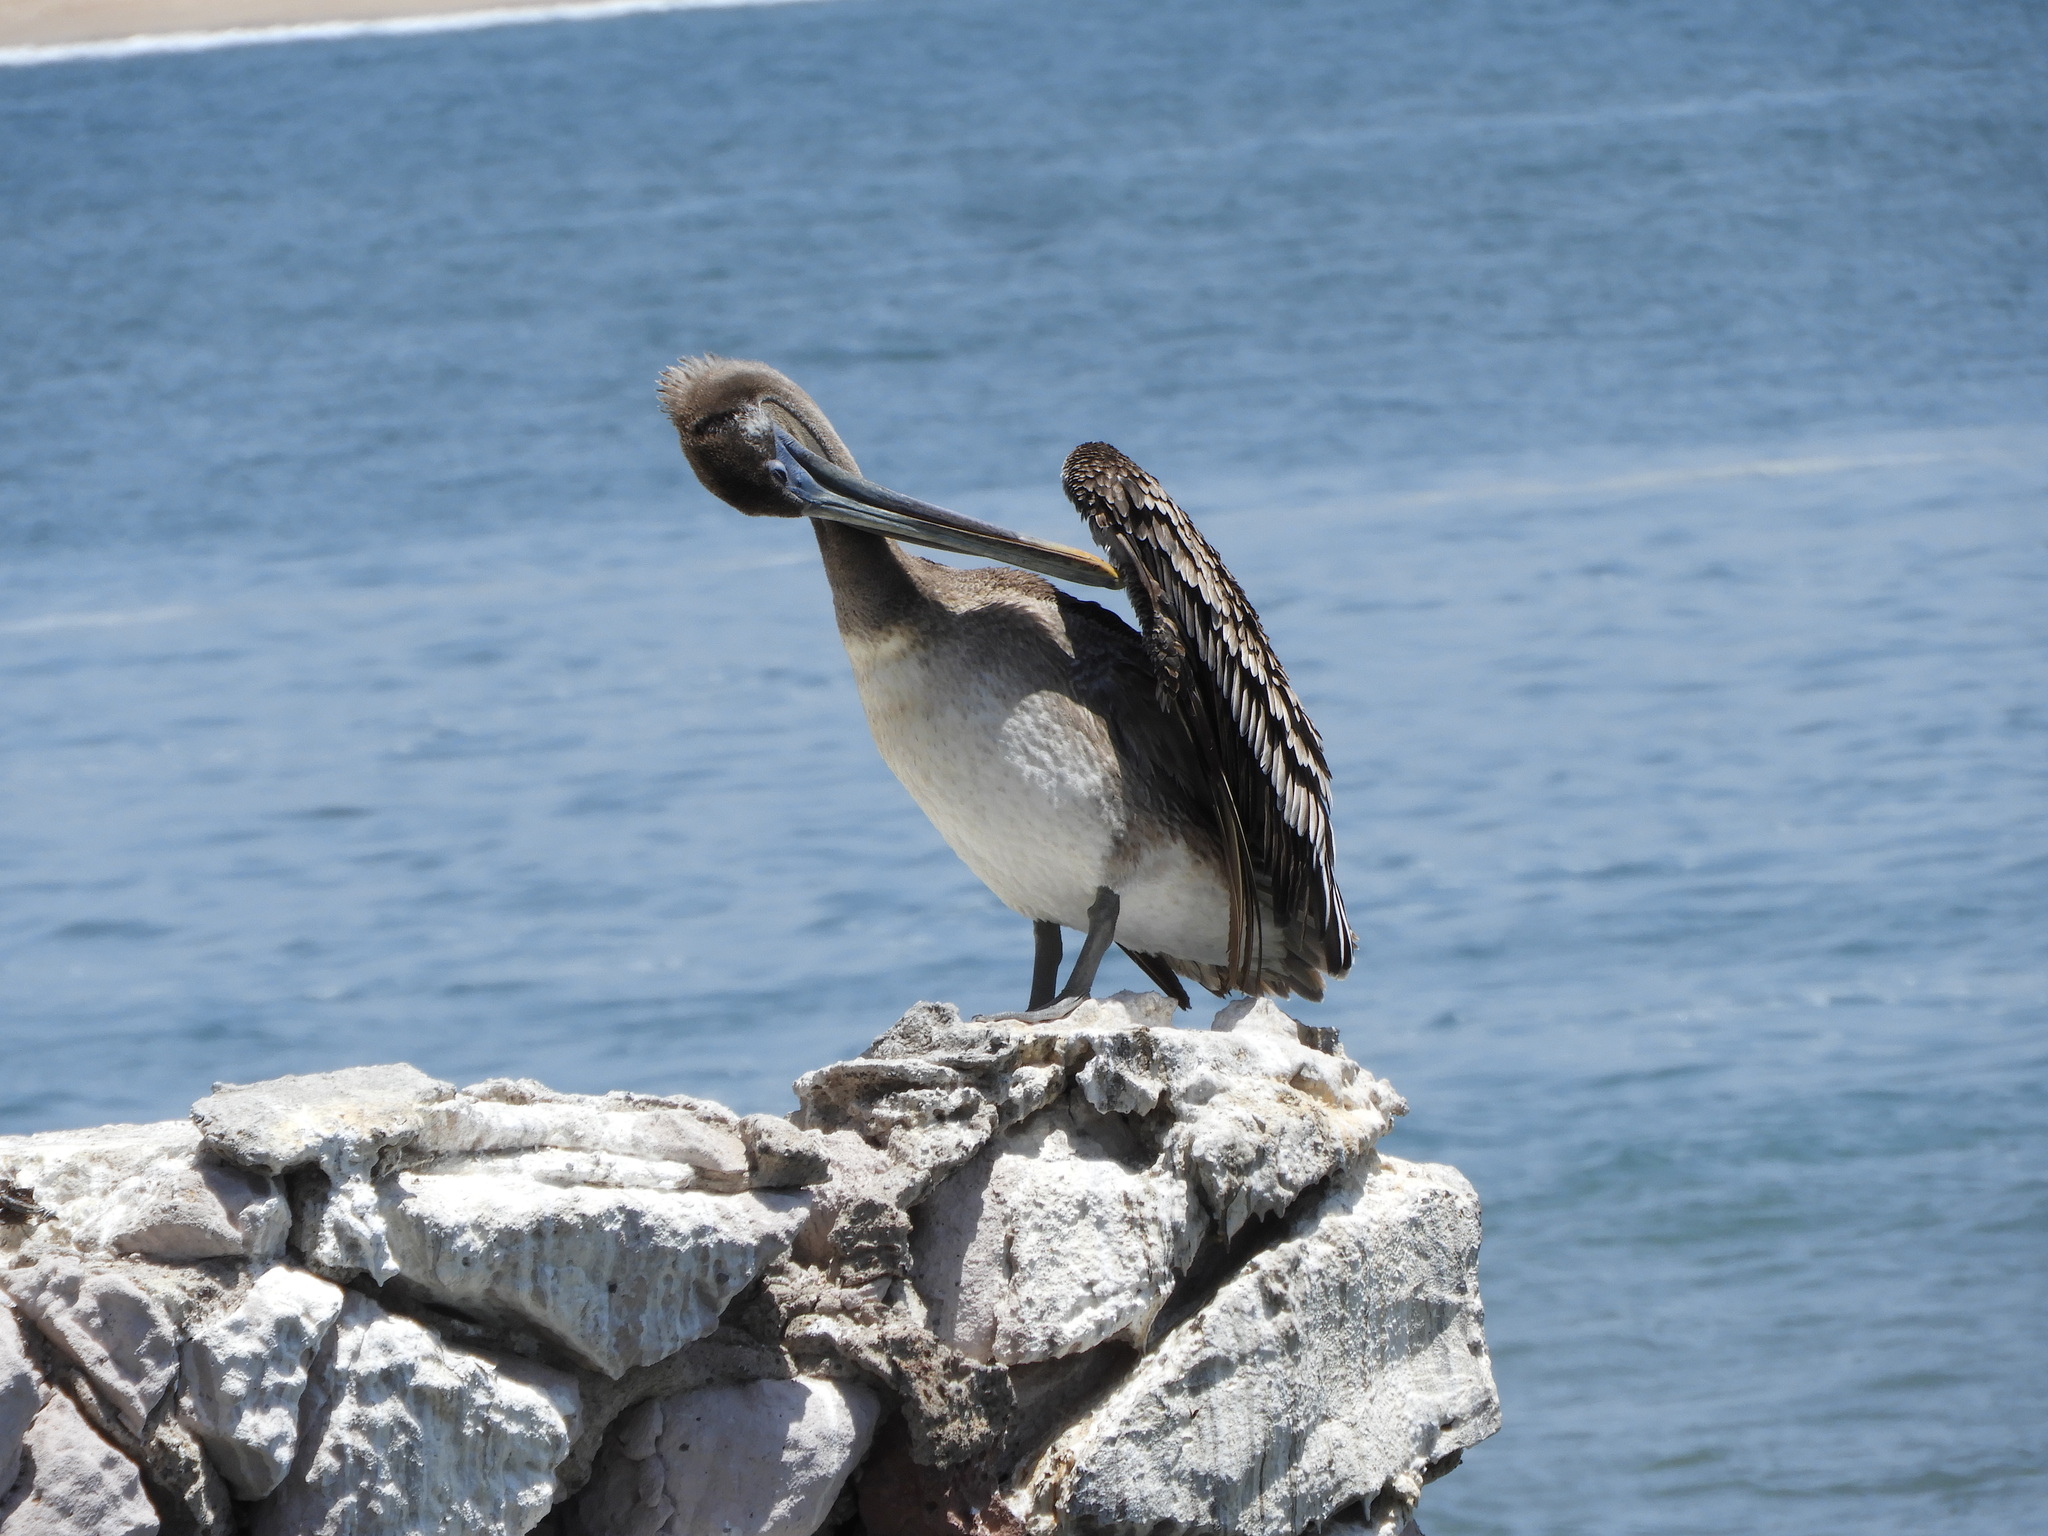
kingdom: Animalia
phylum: Chordata
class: Aves
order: Pelecaniformes
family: Pelecanidae
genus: Pelecanus
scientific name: Pelecanus occidentalis
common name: Brown pelican
